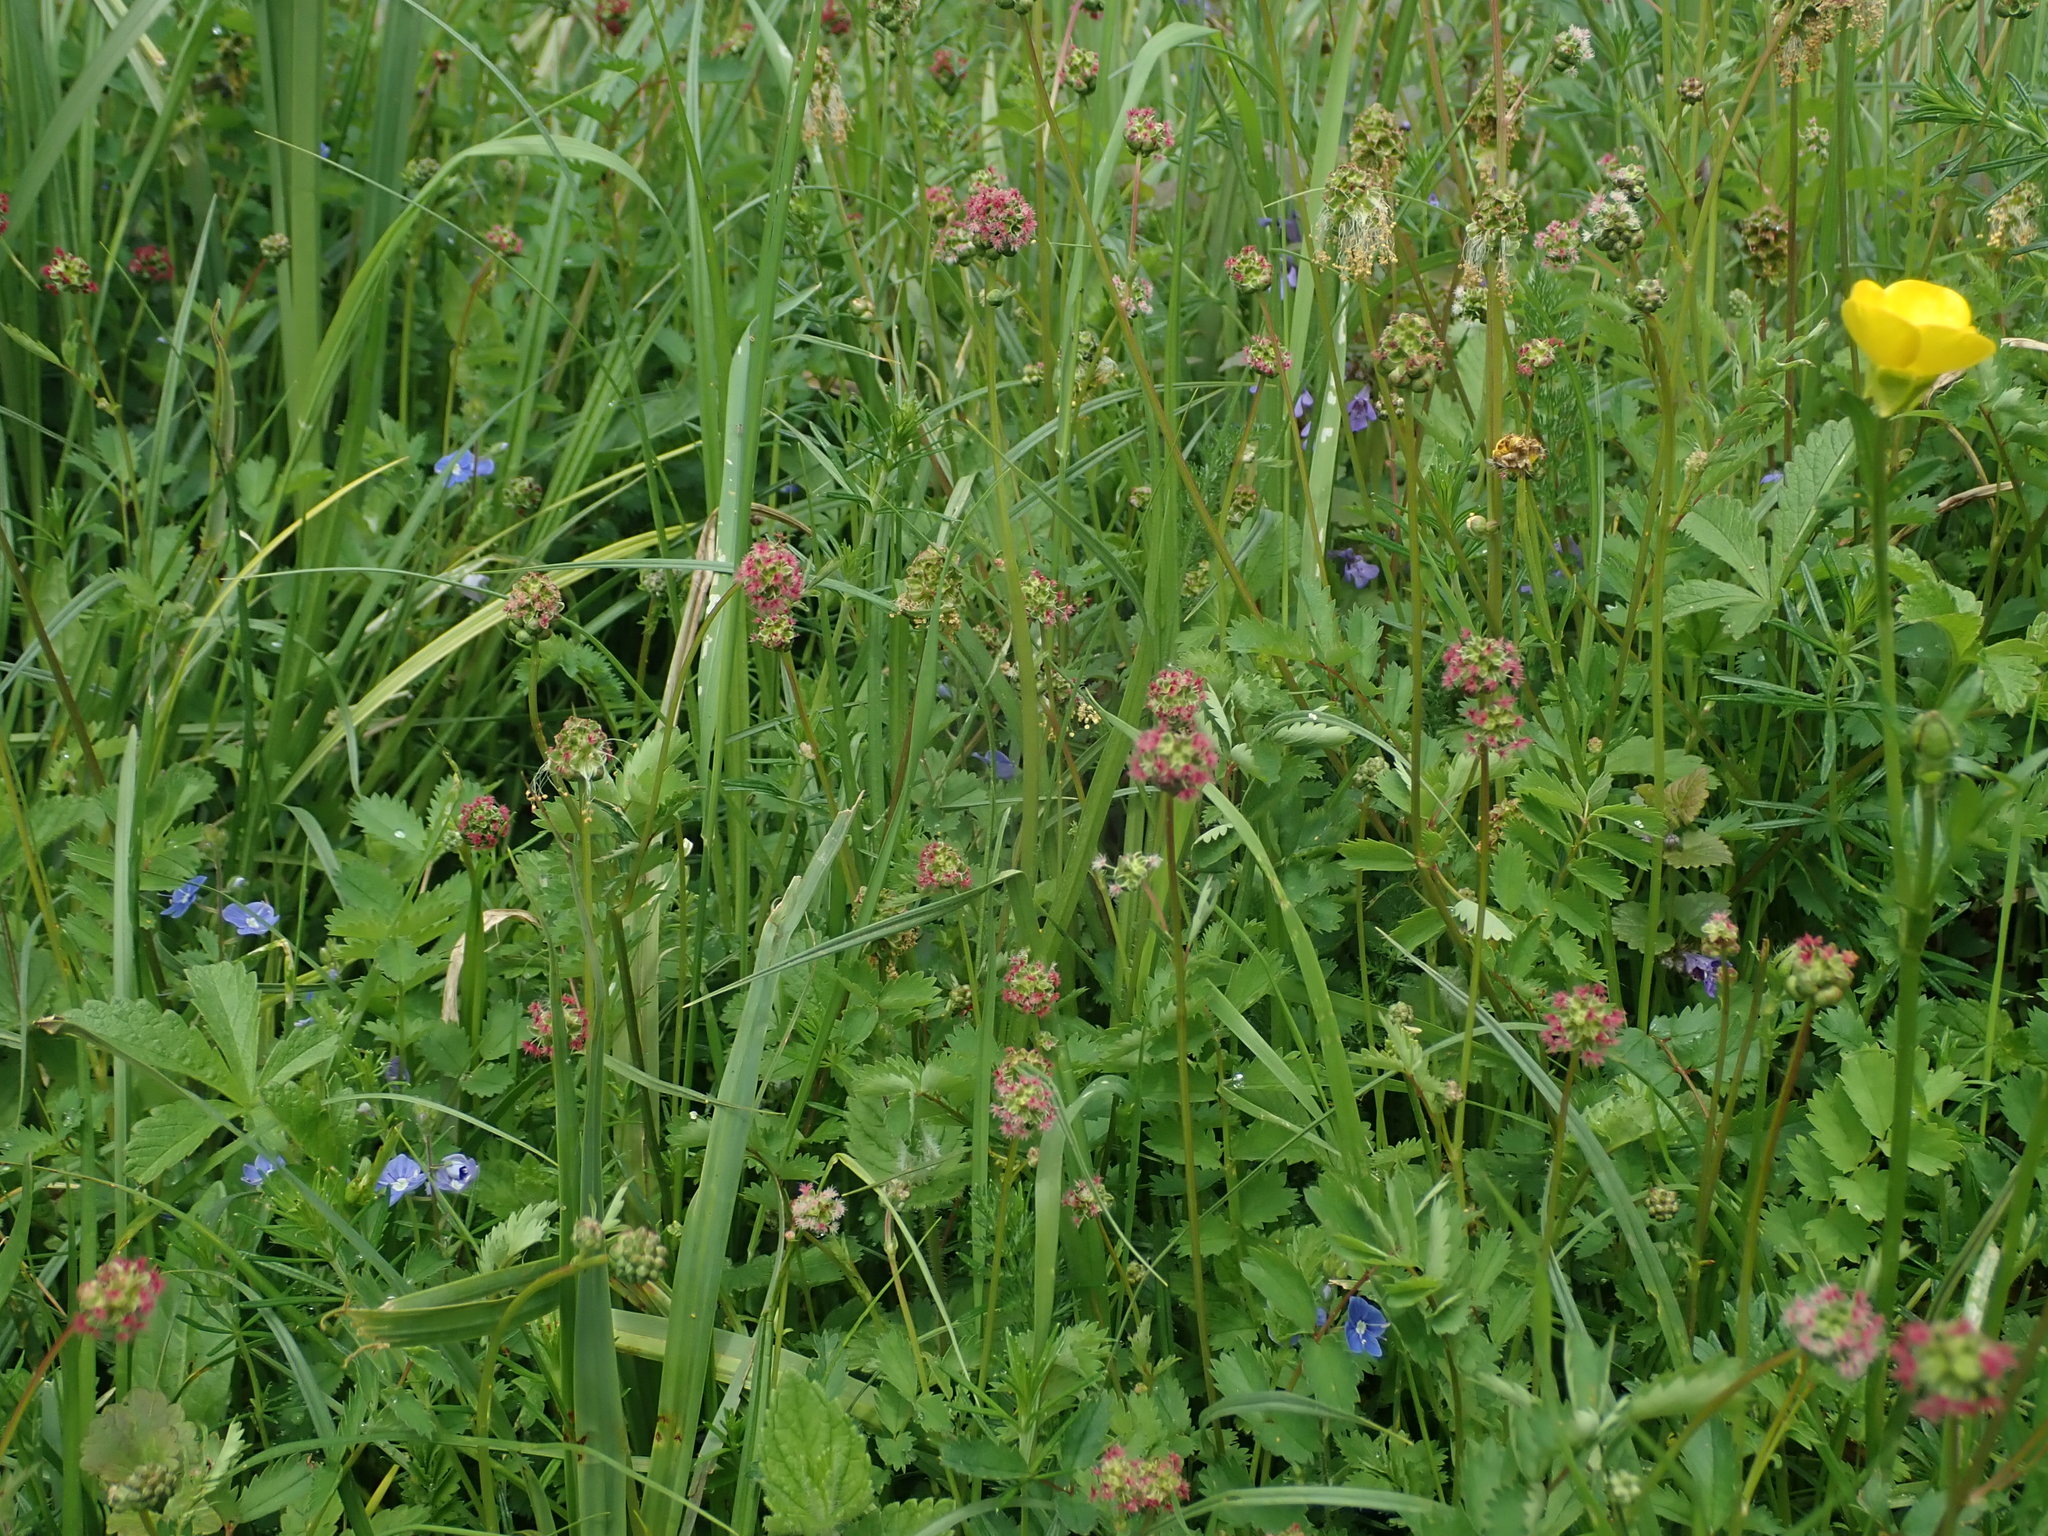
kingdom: Plantae
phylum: Tracheophyta
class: Magnoliopsida
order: Rosales
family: Rosaceae
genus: Poterium
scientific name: Poterium sanguisorba
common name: Salad burnet
